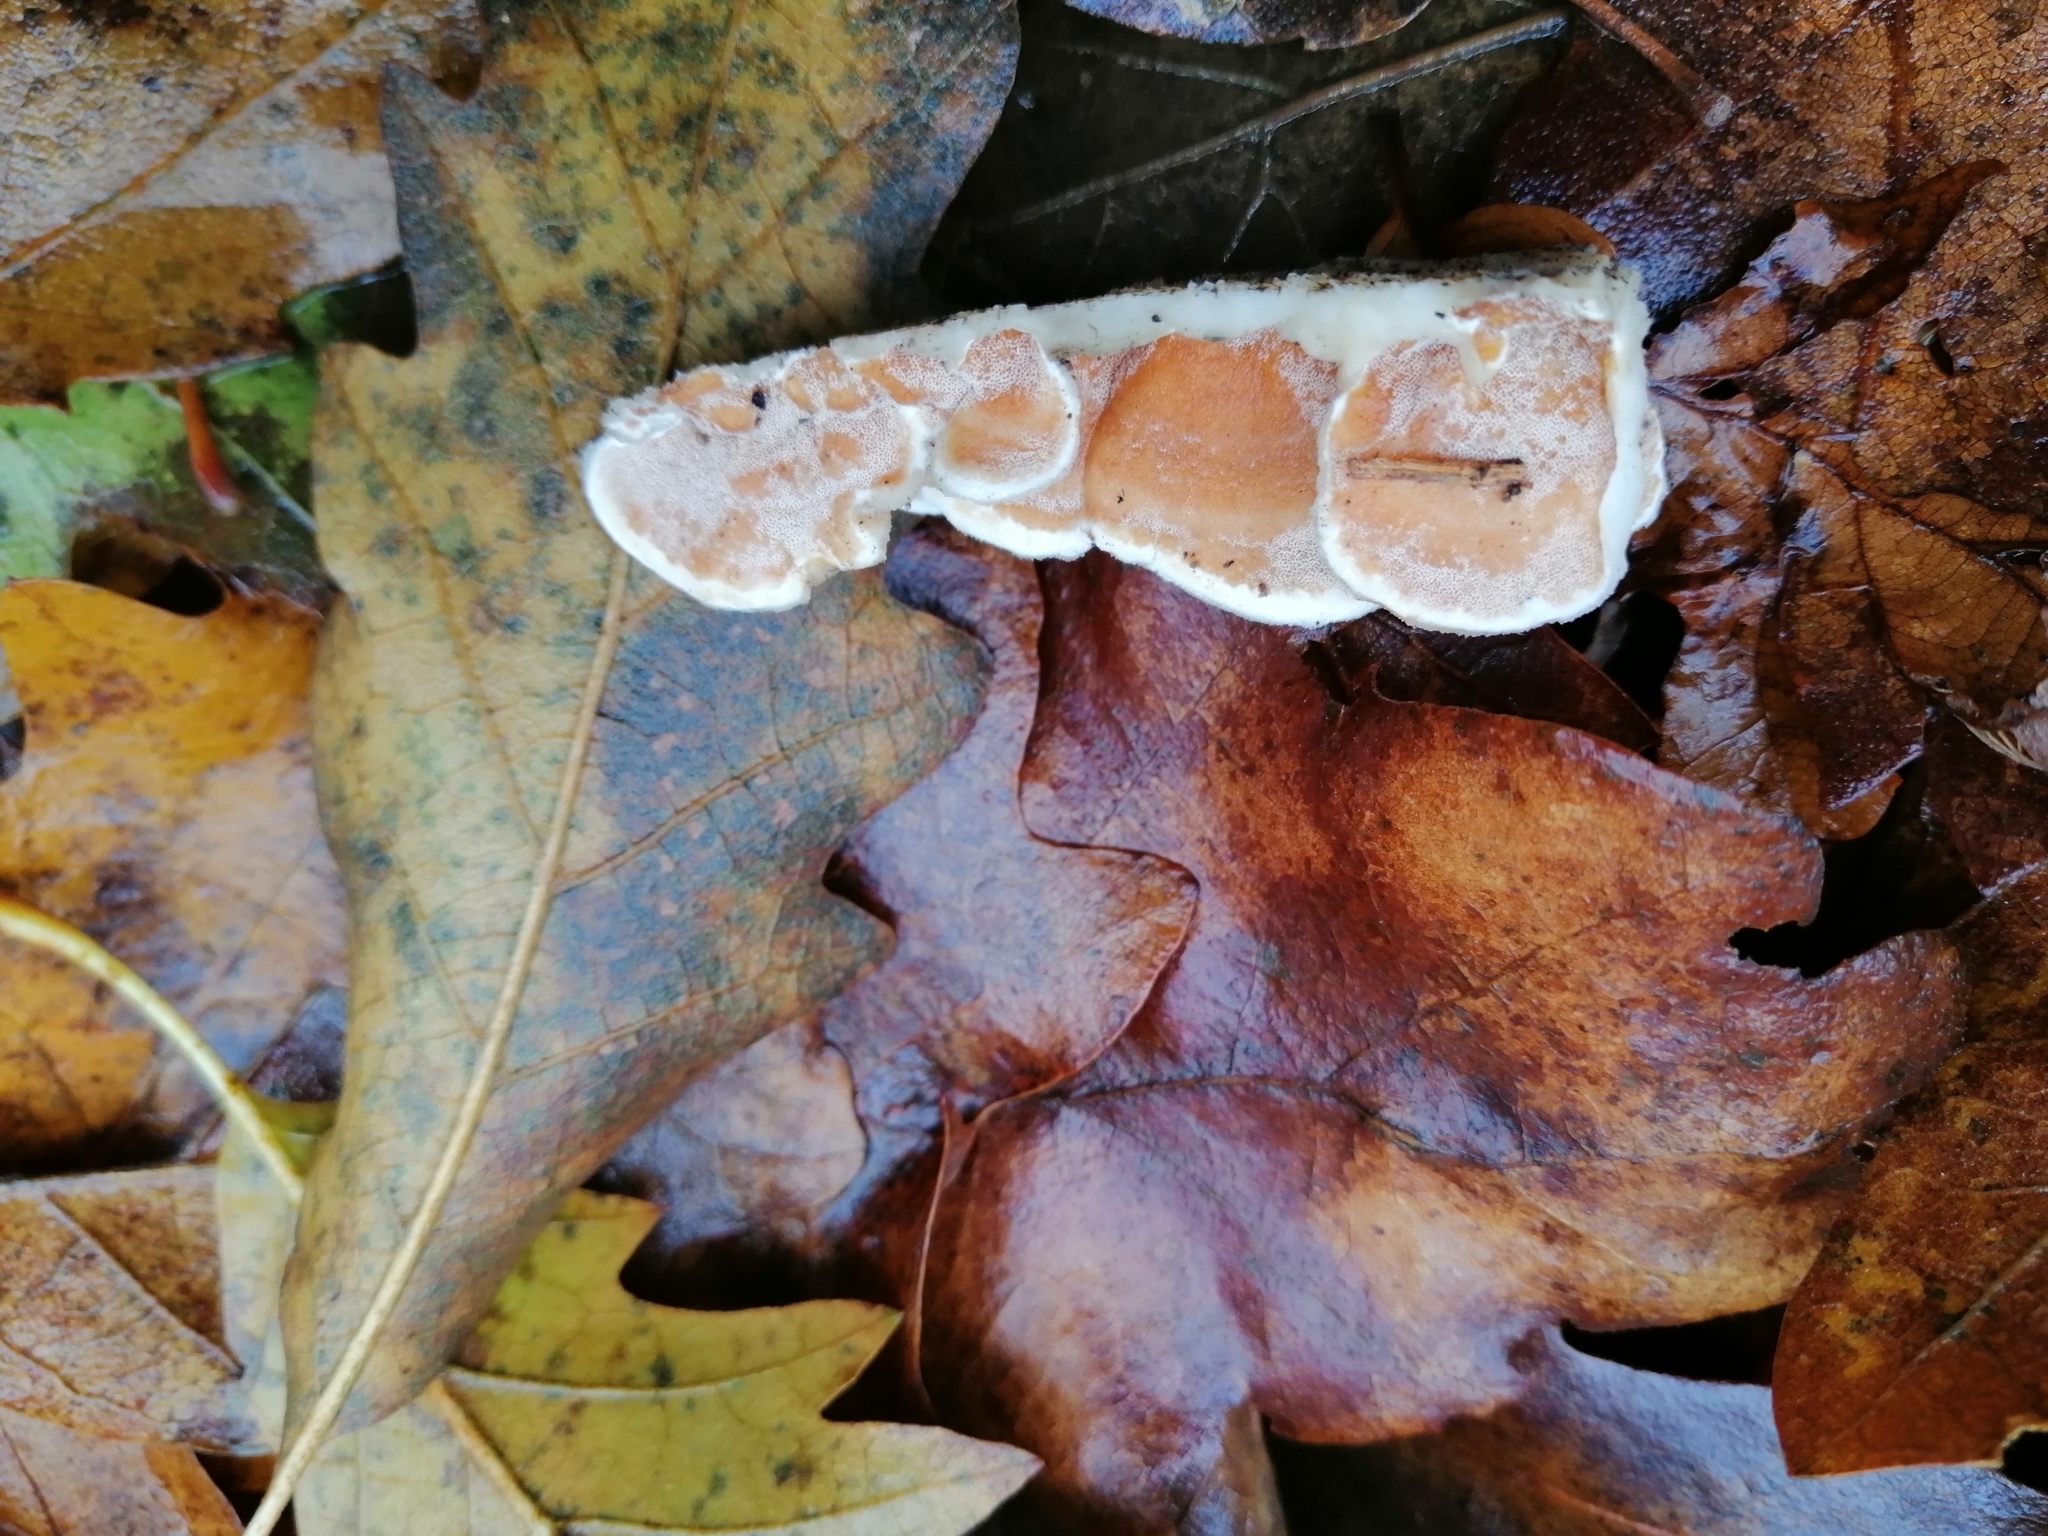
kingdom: Fungi
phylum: Basidiomycota
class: Agaricomycetes
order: Polyporales
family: Irpicaceae
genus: Vitreoporus
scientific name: Vitreoporus dichrous
